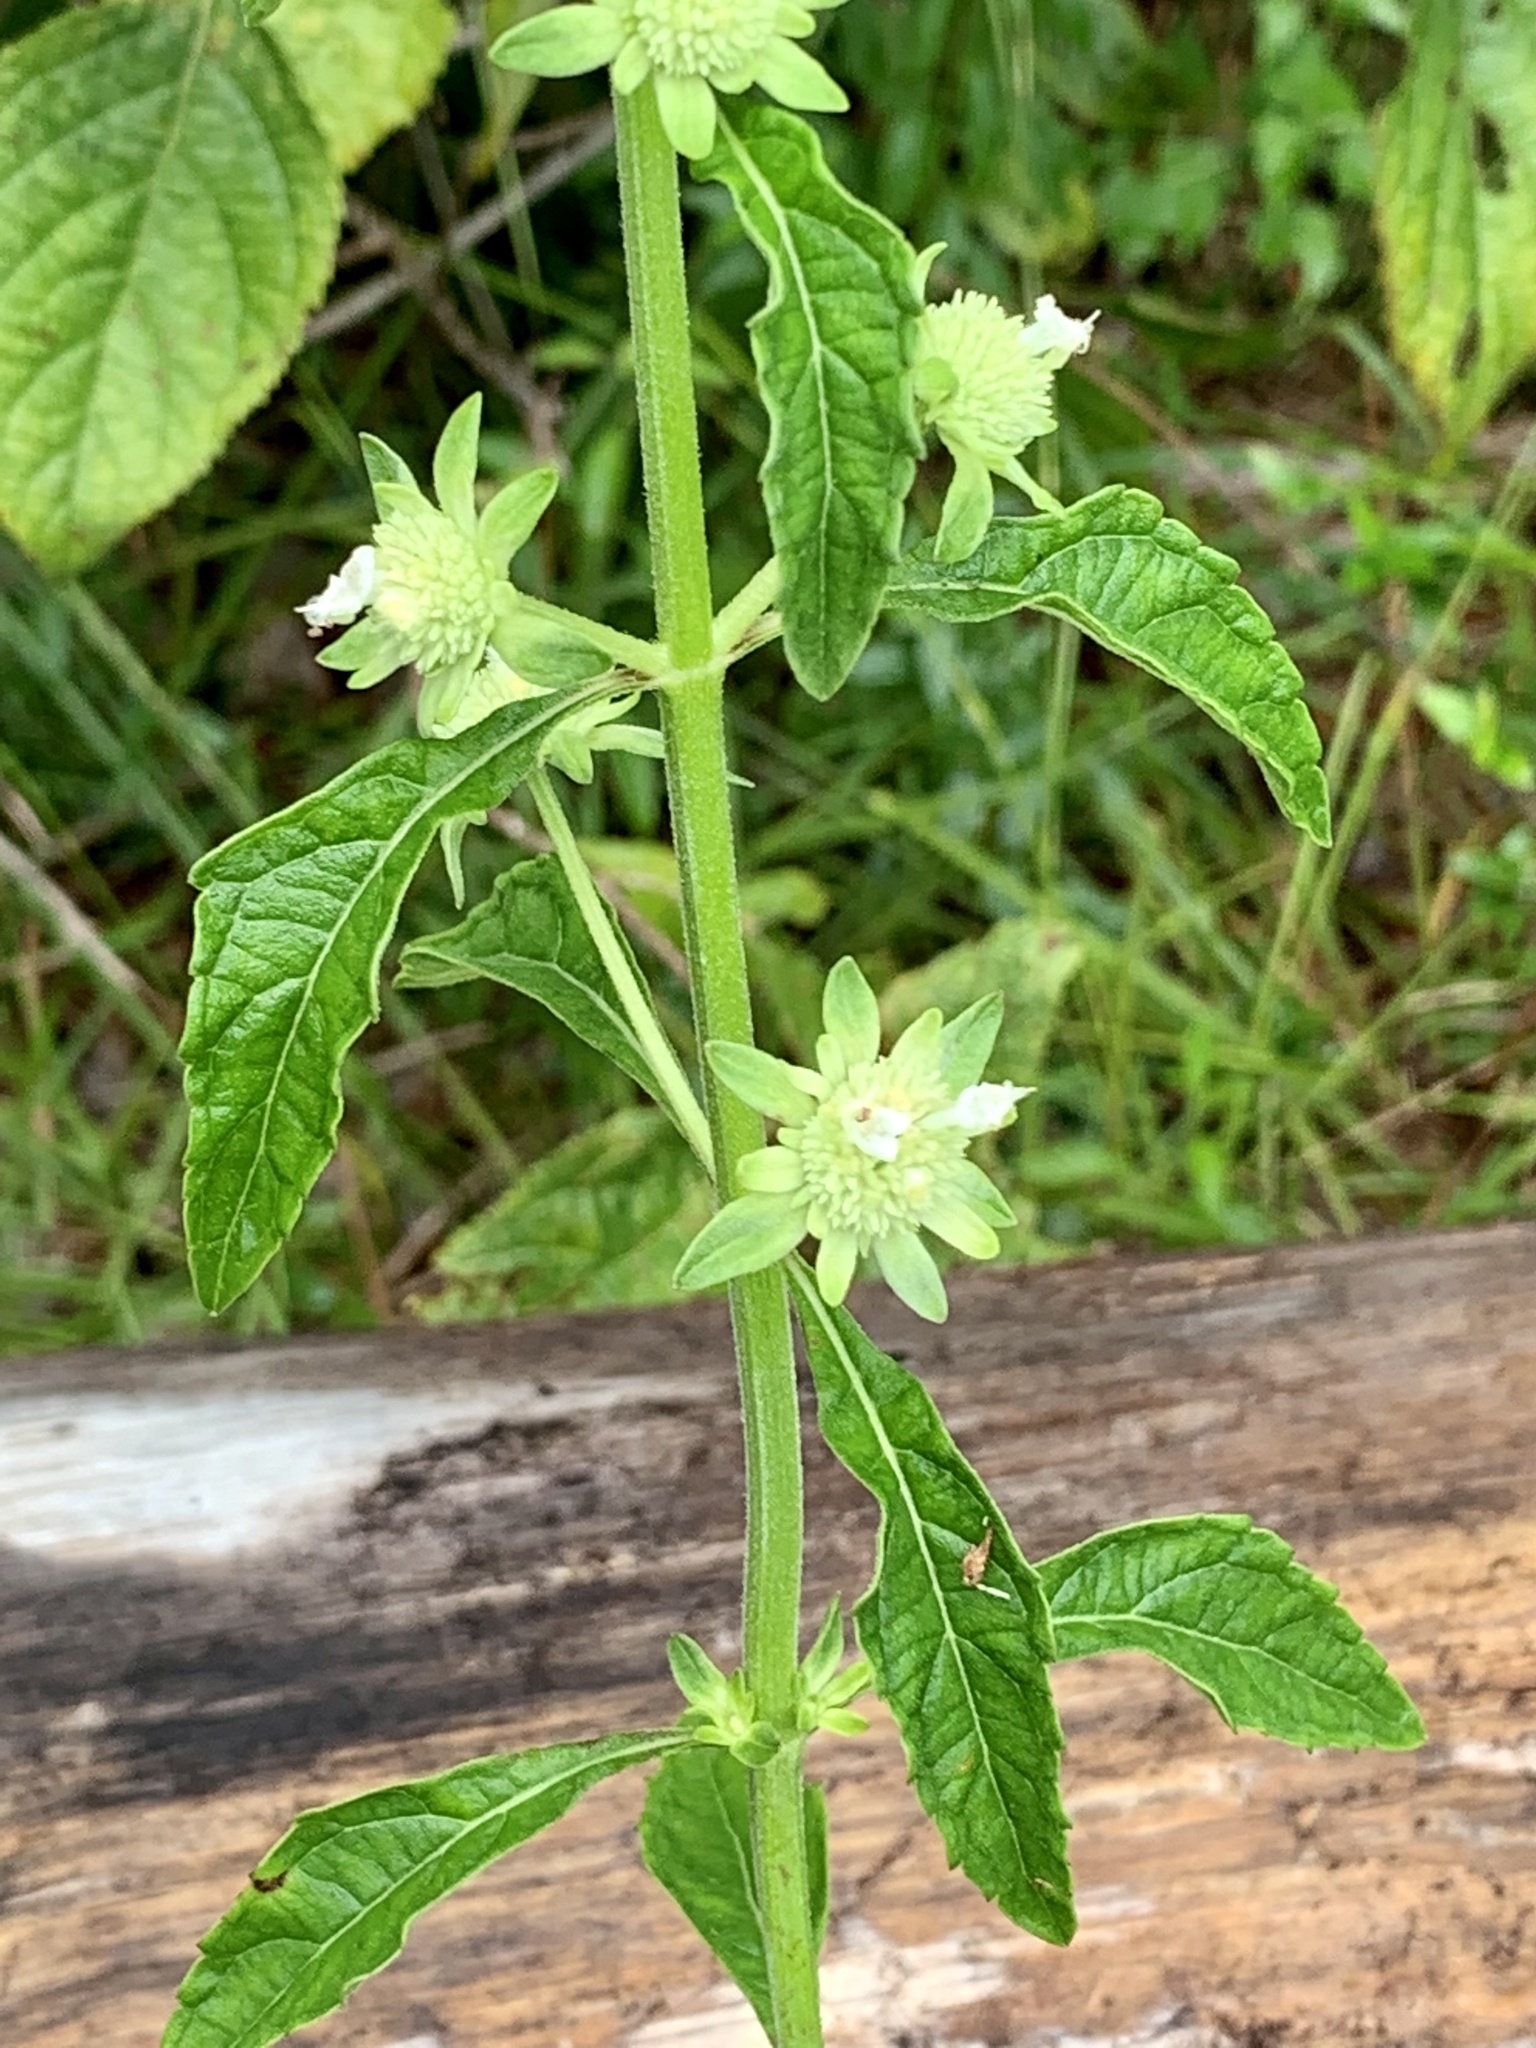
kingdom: Plantae
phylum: Tracheophyta
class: Magnoliopsida
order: Lamiales
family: Lamiaceae
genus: Hyptis
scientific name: Hyptis alata
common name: Cluster bush-mint
